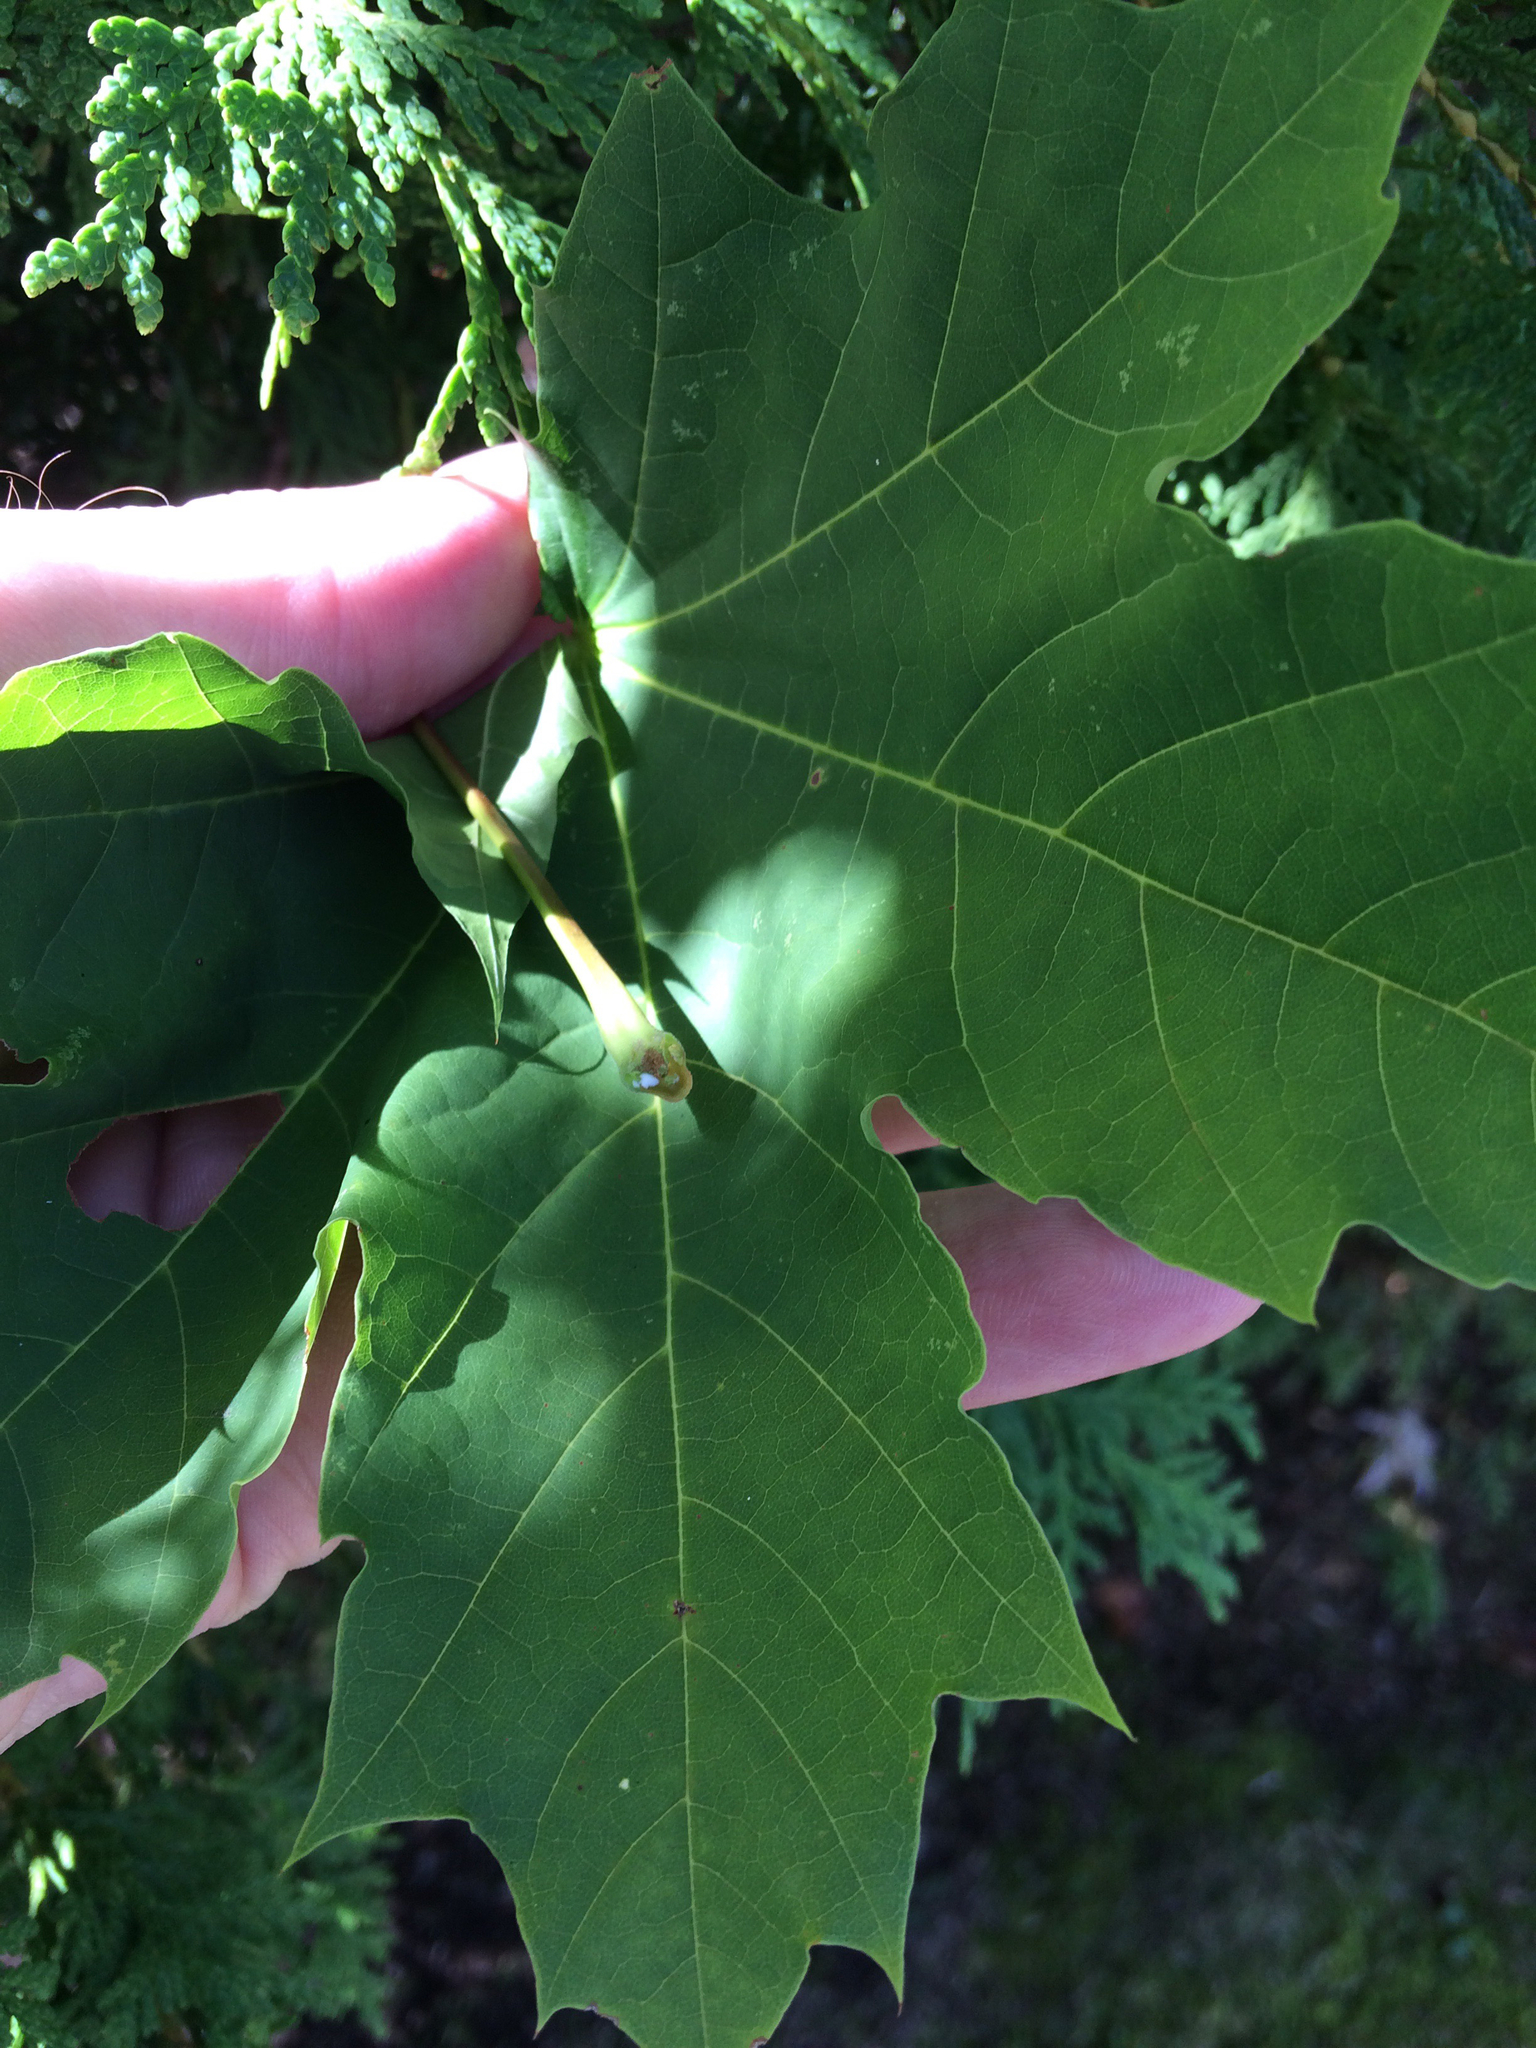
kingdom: Plantae
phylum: Tracheophyta
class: Magnoliopsida
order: Sapindales
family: Sapindaceae
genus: Acer
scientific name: Acer platanoides
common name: Norway maple
